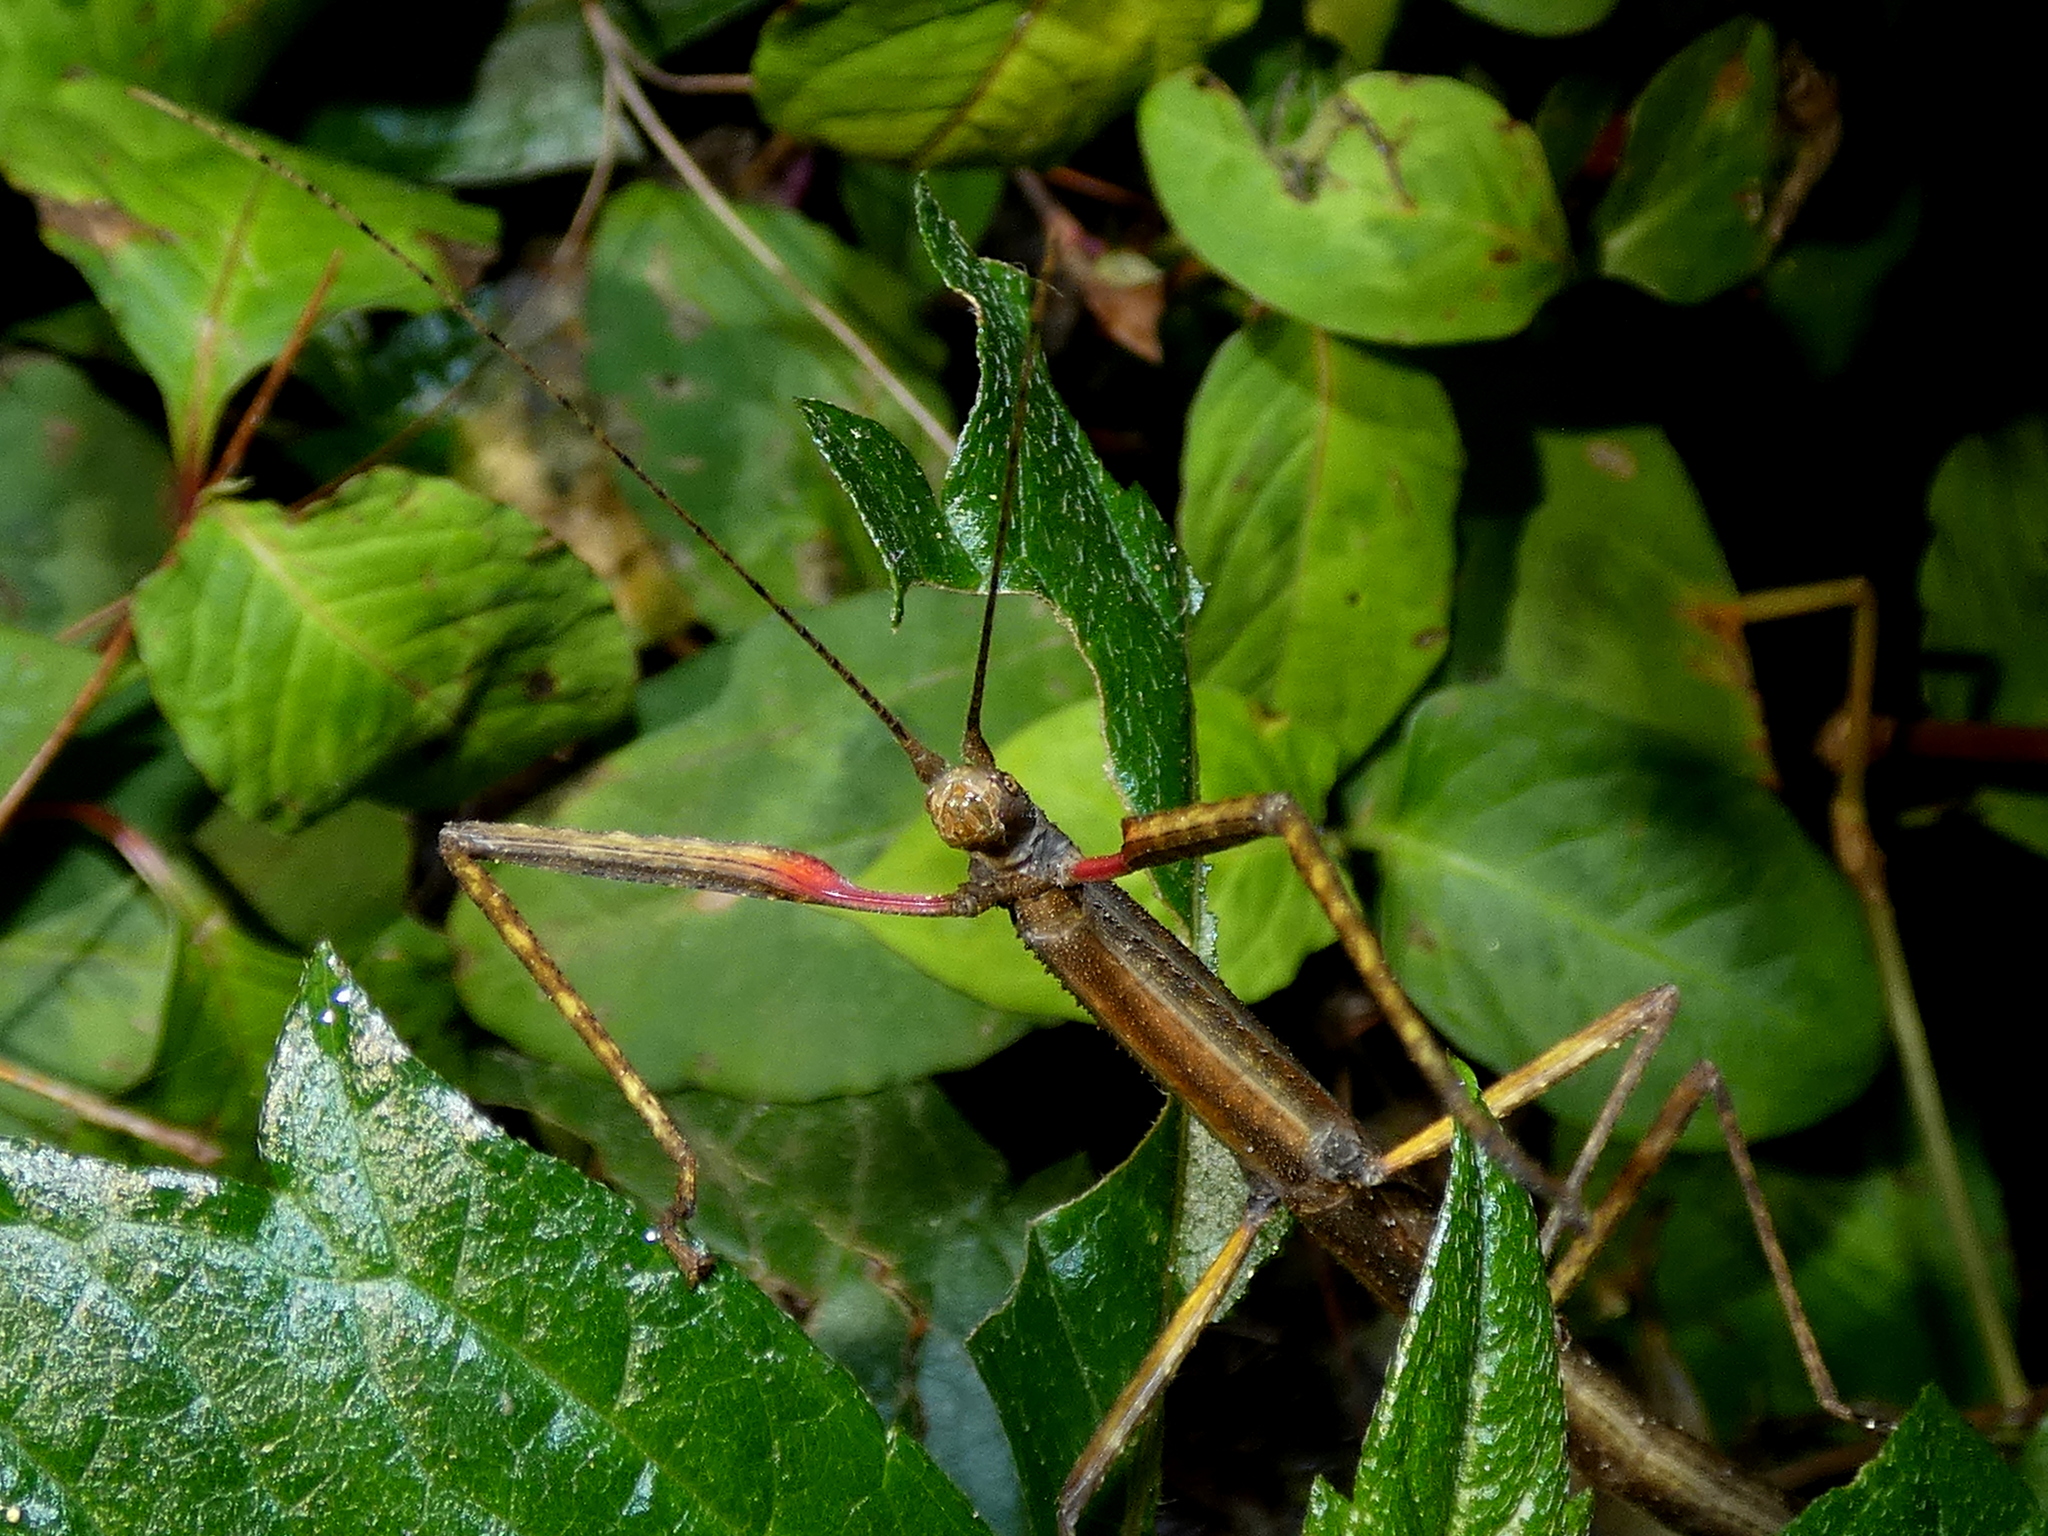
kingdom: Animalia
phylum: Arthropoda
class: Insecta
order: Phasmida
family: Lonchodidae
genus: Carausius
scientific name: Carausius morosus
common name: Indian stick insect
